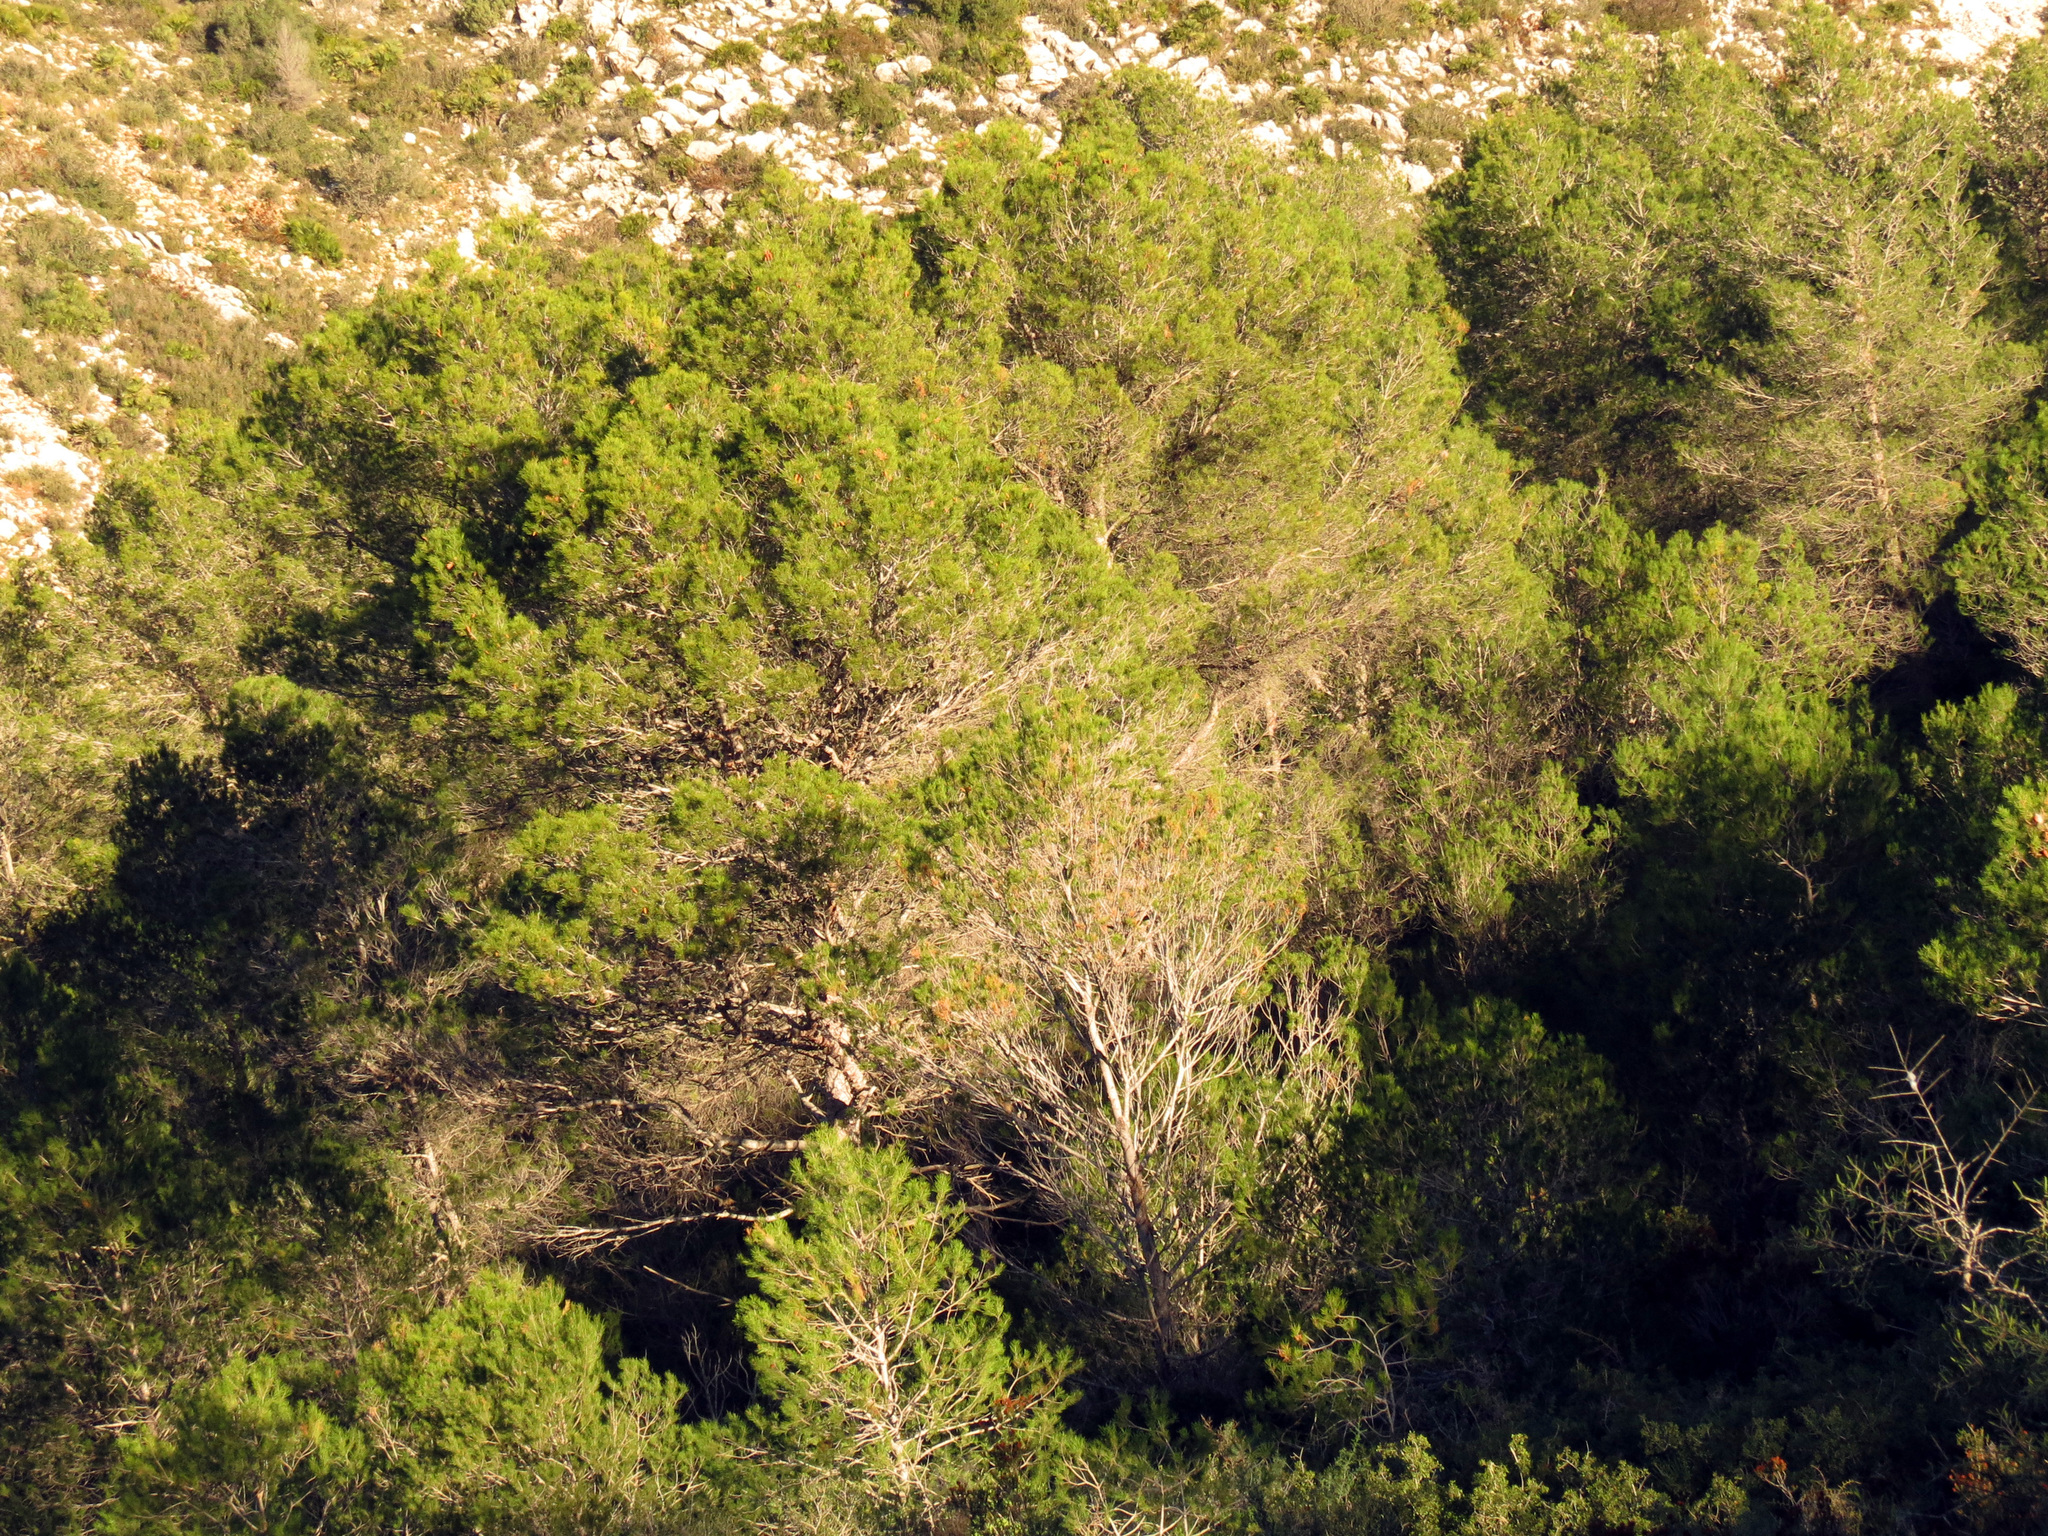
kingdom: Plantae
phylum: Tracheophyta
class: Pinopsida
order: Pinales
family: Pinaceae
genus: Pinus
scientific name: Pinus halepensis
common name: Aleppo pine
